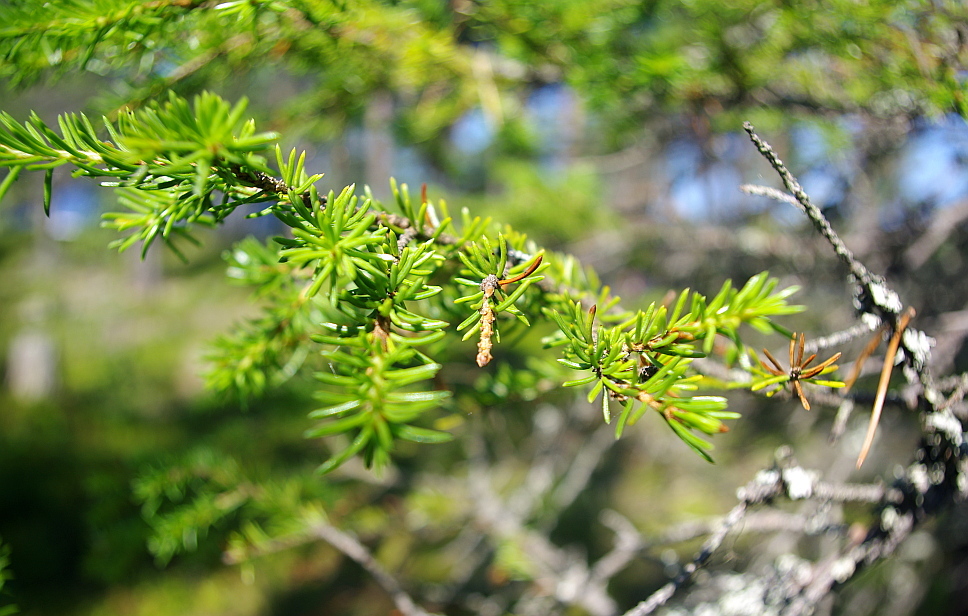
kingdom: Plantae
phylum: Tracheophyta
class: Pinopsida
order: Pinales
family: Pinaceae
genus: Picea
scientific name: Picea fennica
